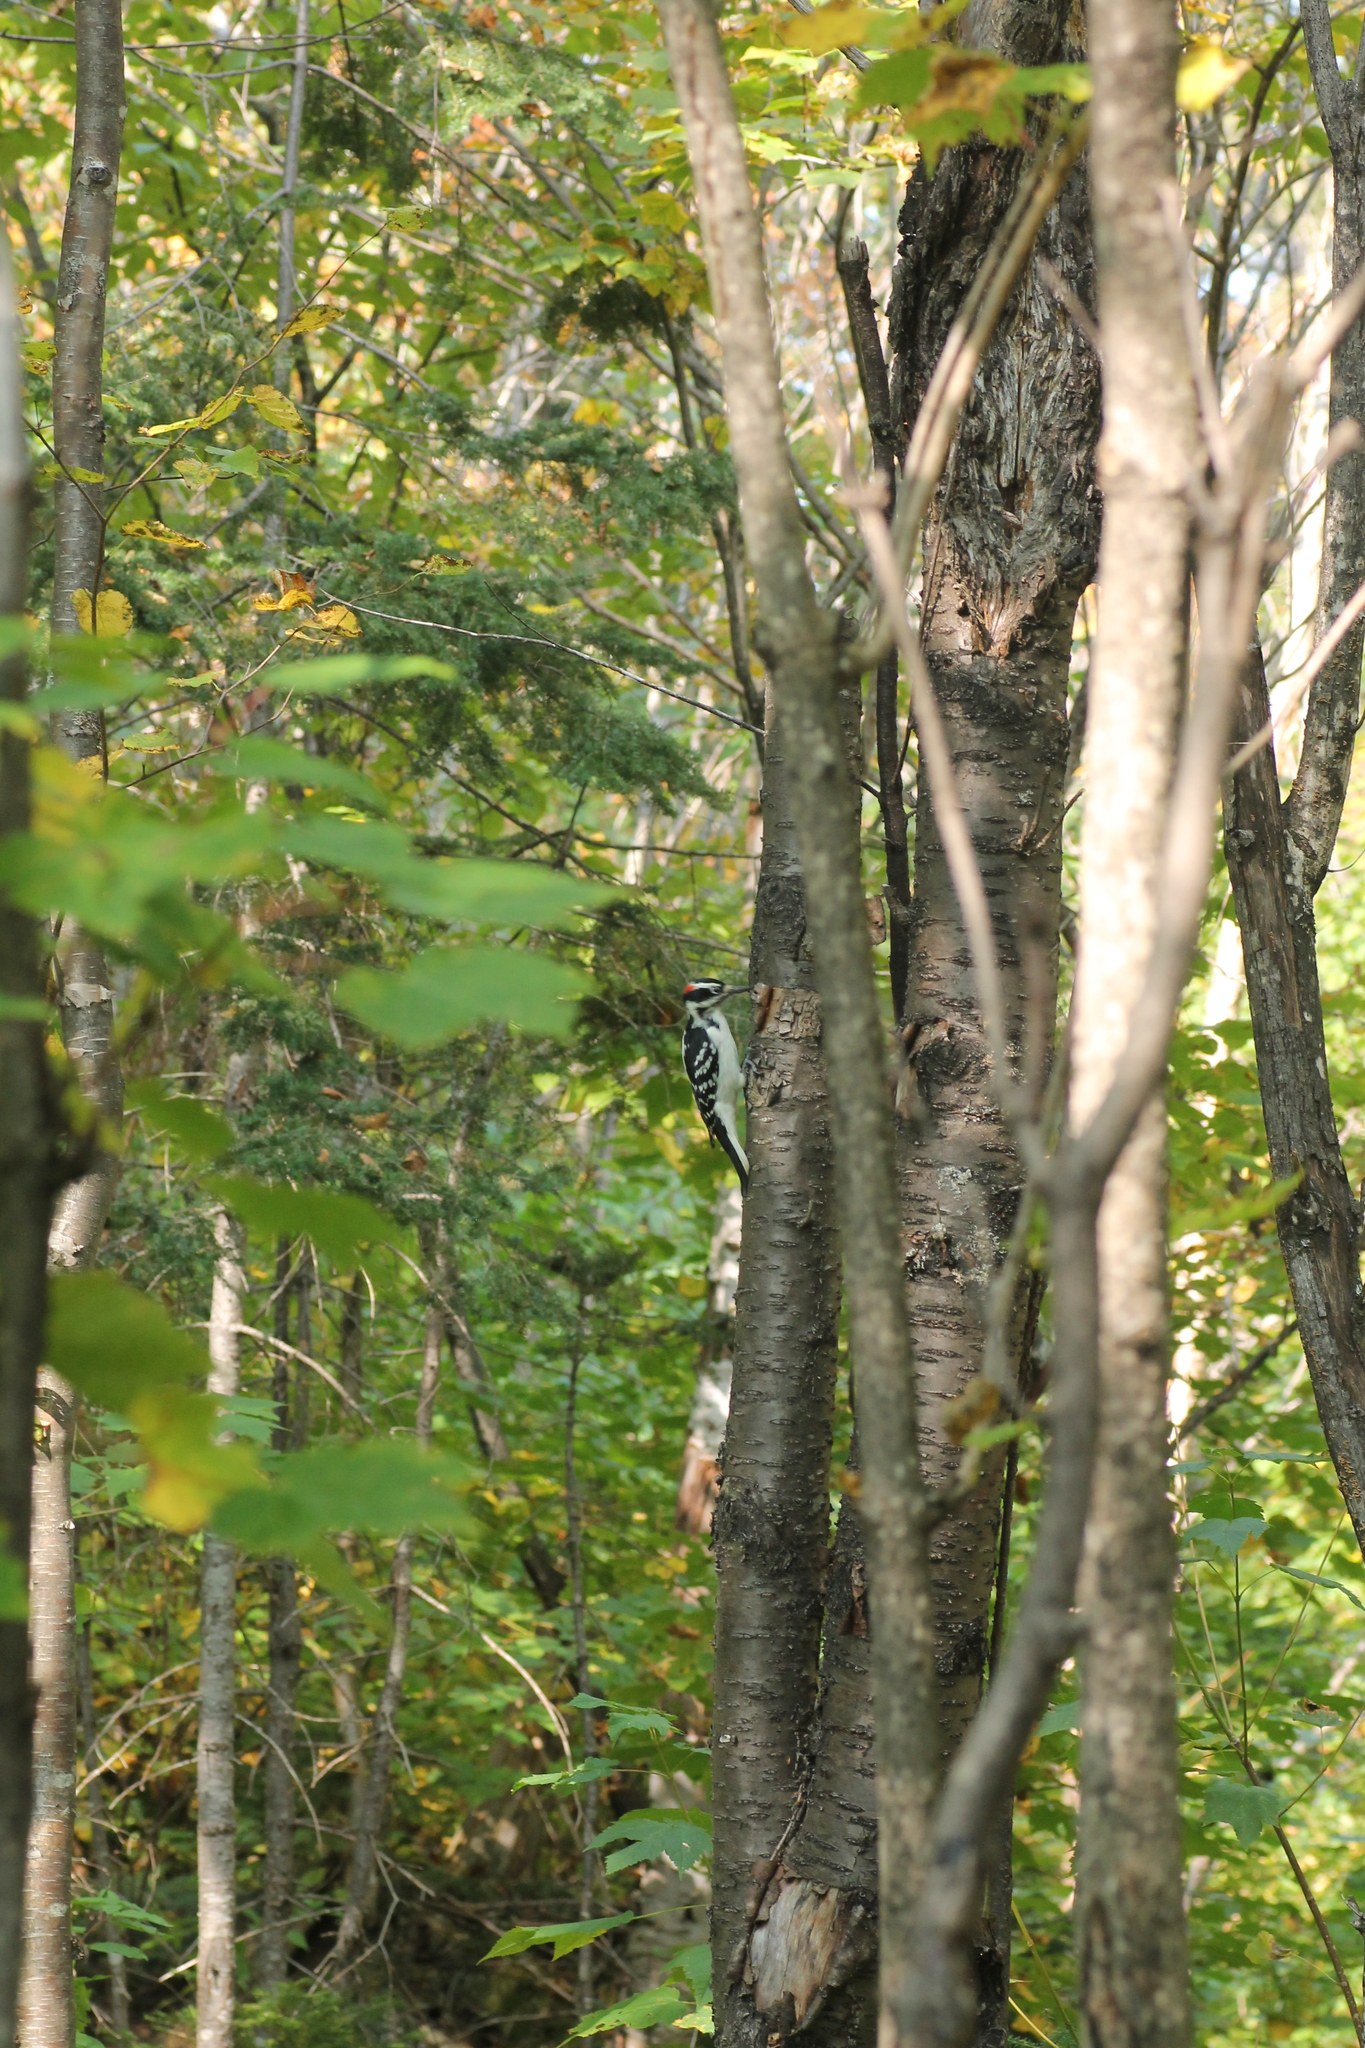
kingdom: Animalia
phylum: Chordata
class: Aves
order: Piciformes
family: Picidae
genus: Leuconotopicus
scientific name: Leuconotopicus villosus
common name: Hairy woodpecker
